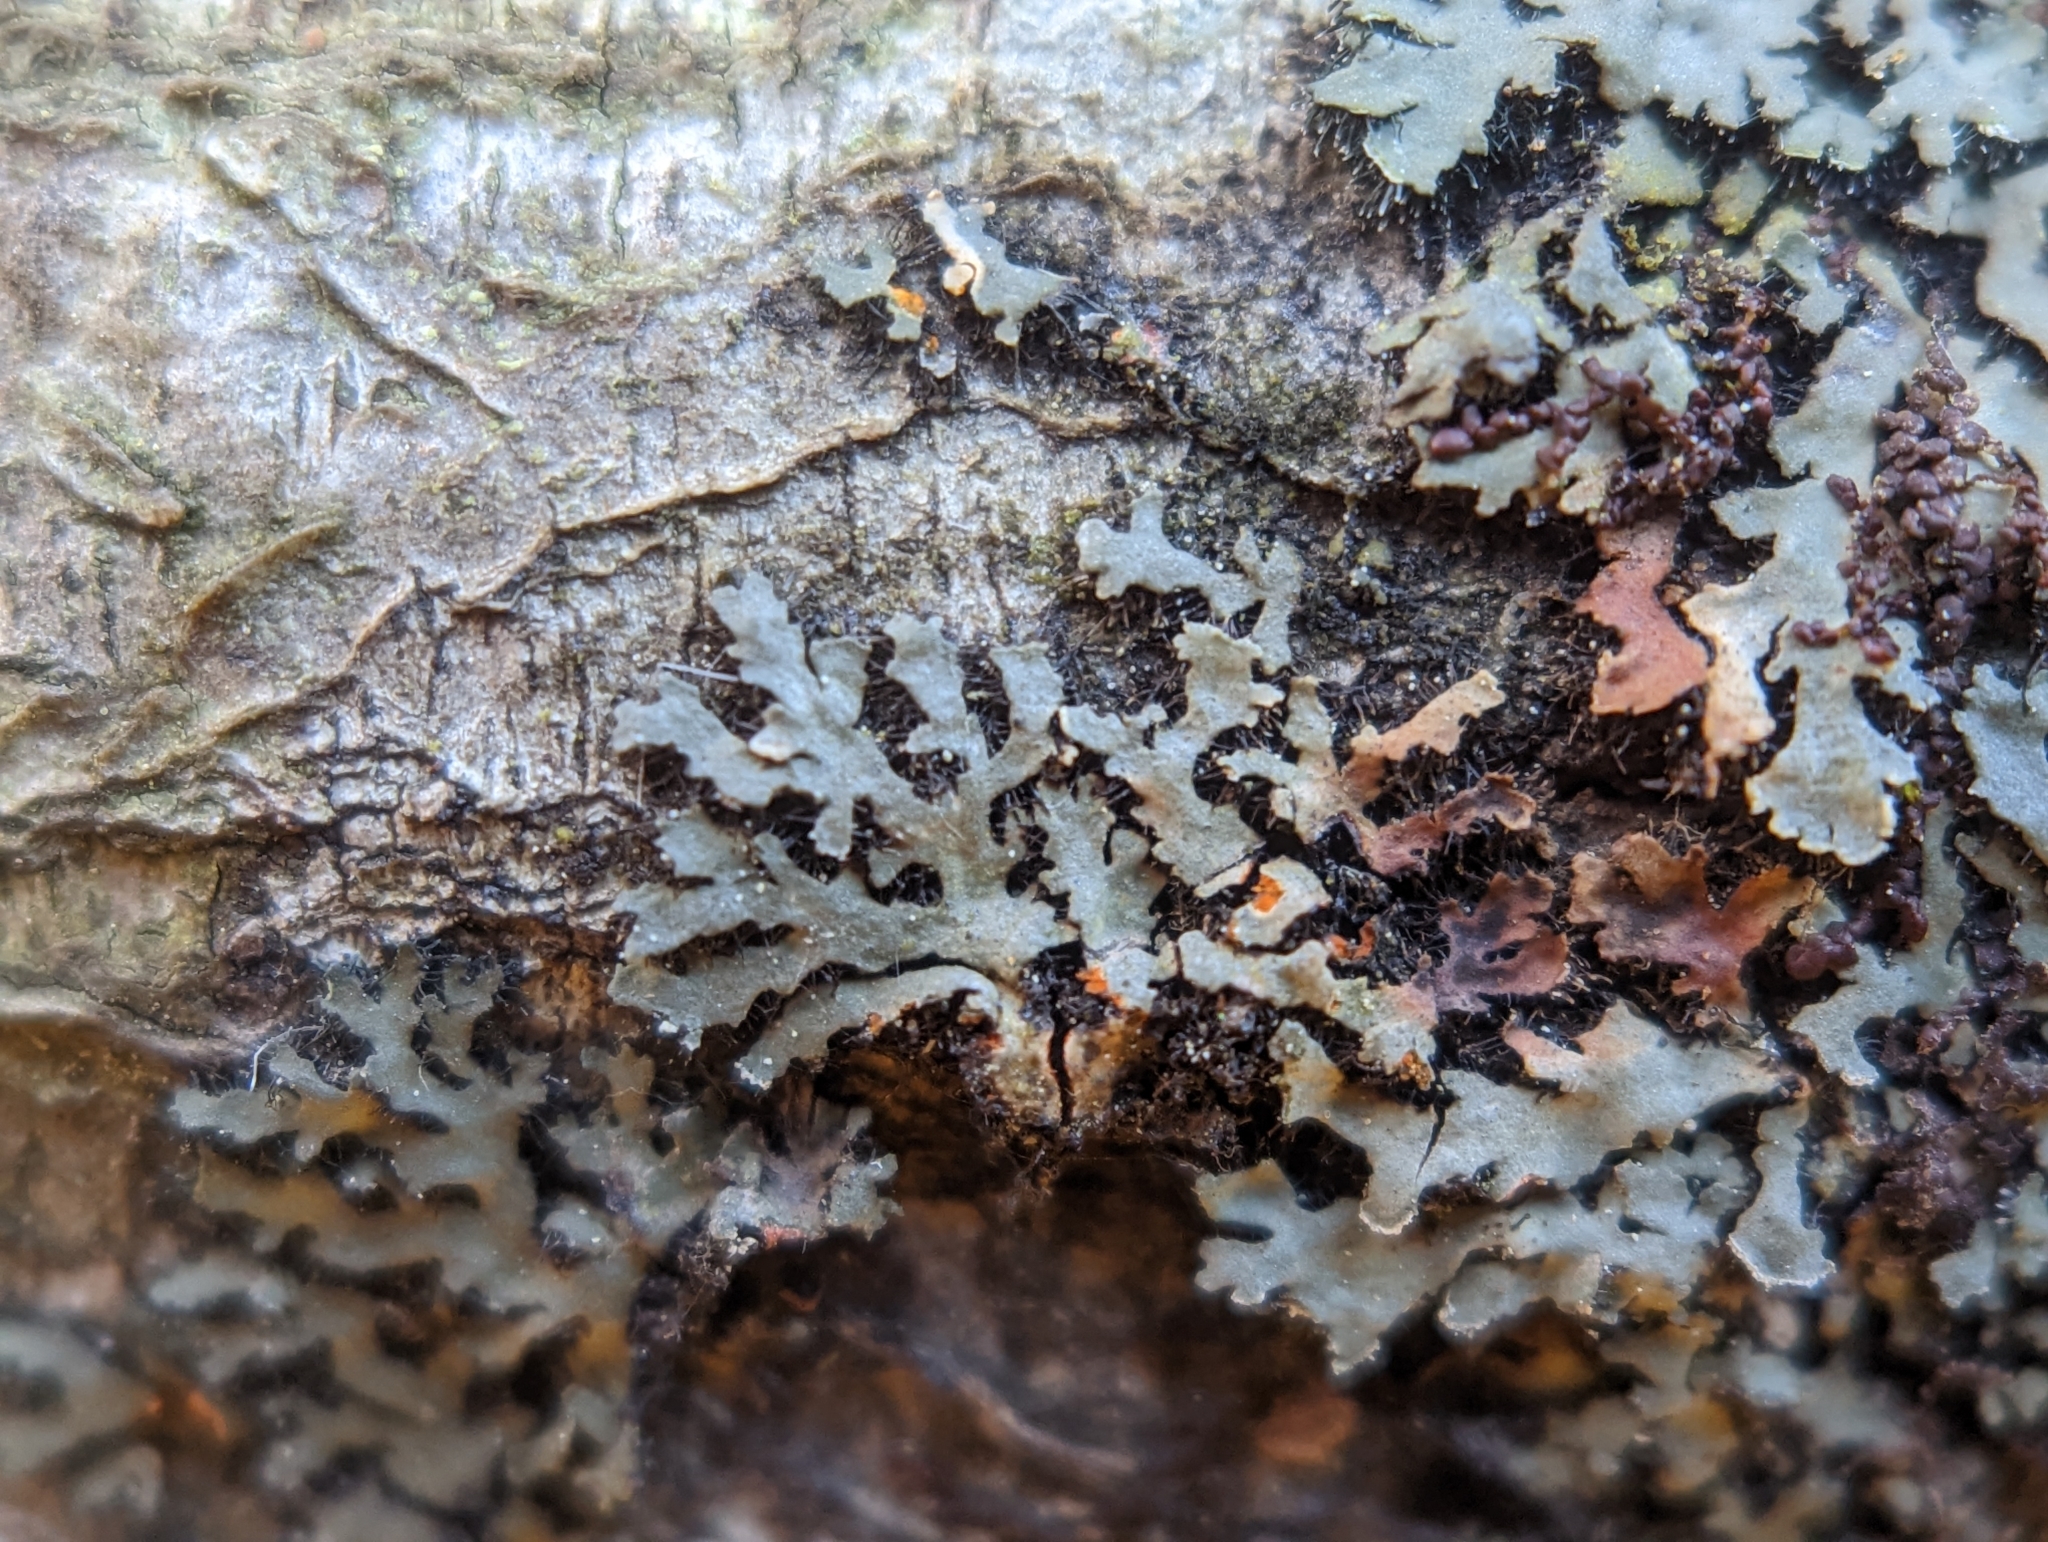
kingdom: Fungi
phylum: Ascomycota
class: Lecanoromycetes
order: Caliciales
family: Physciaceae
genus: Phaeophyscia
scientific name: Phaeophyscia rubropulchra
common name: Orange-cored shadow lichen
